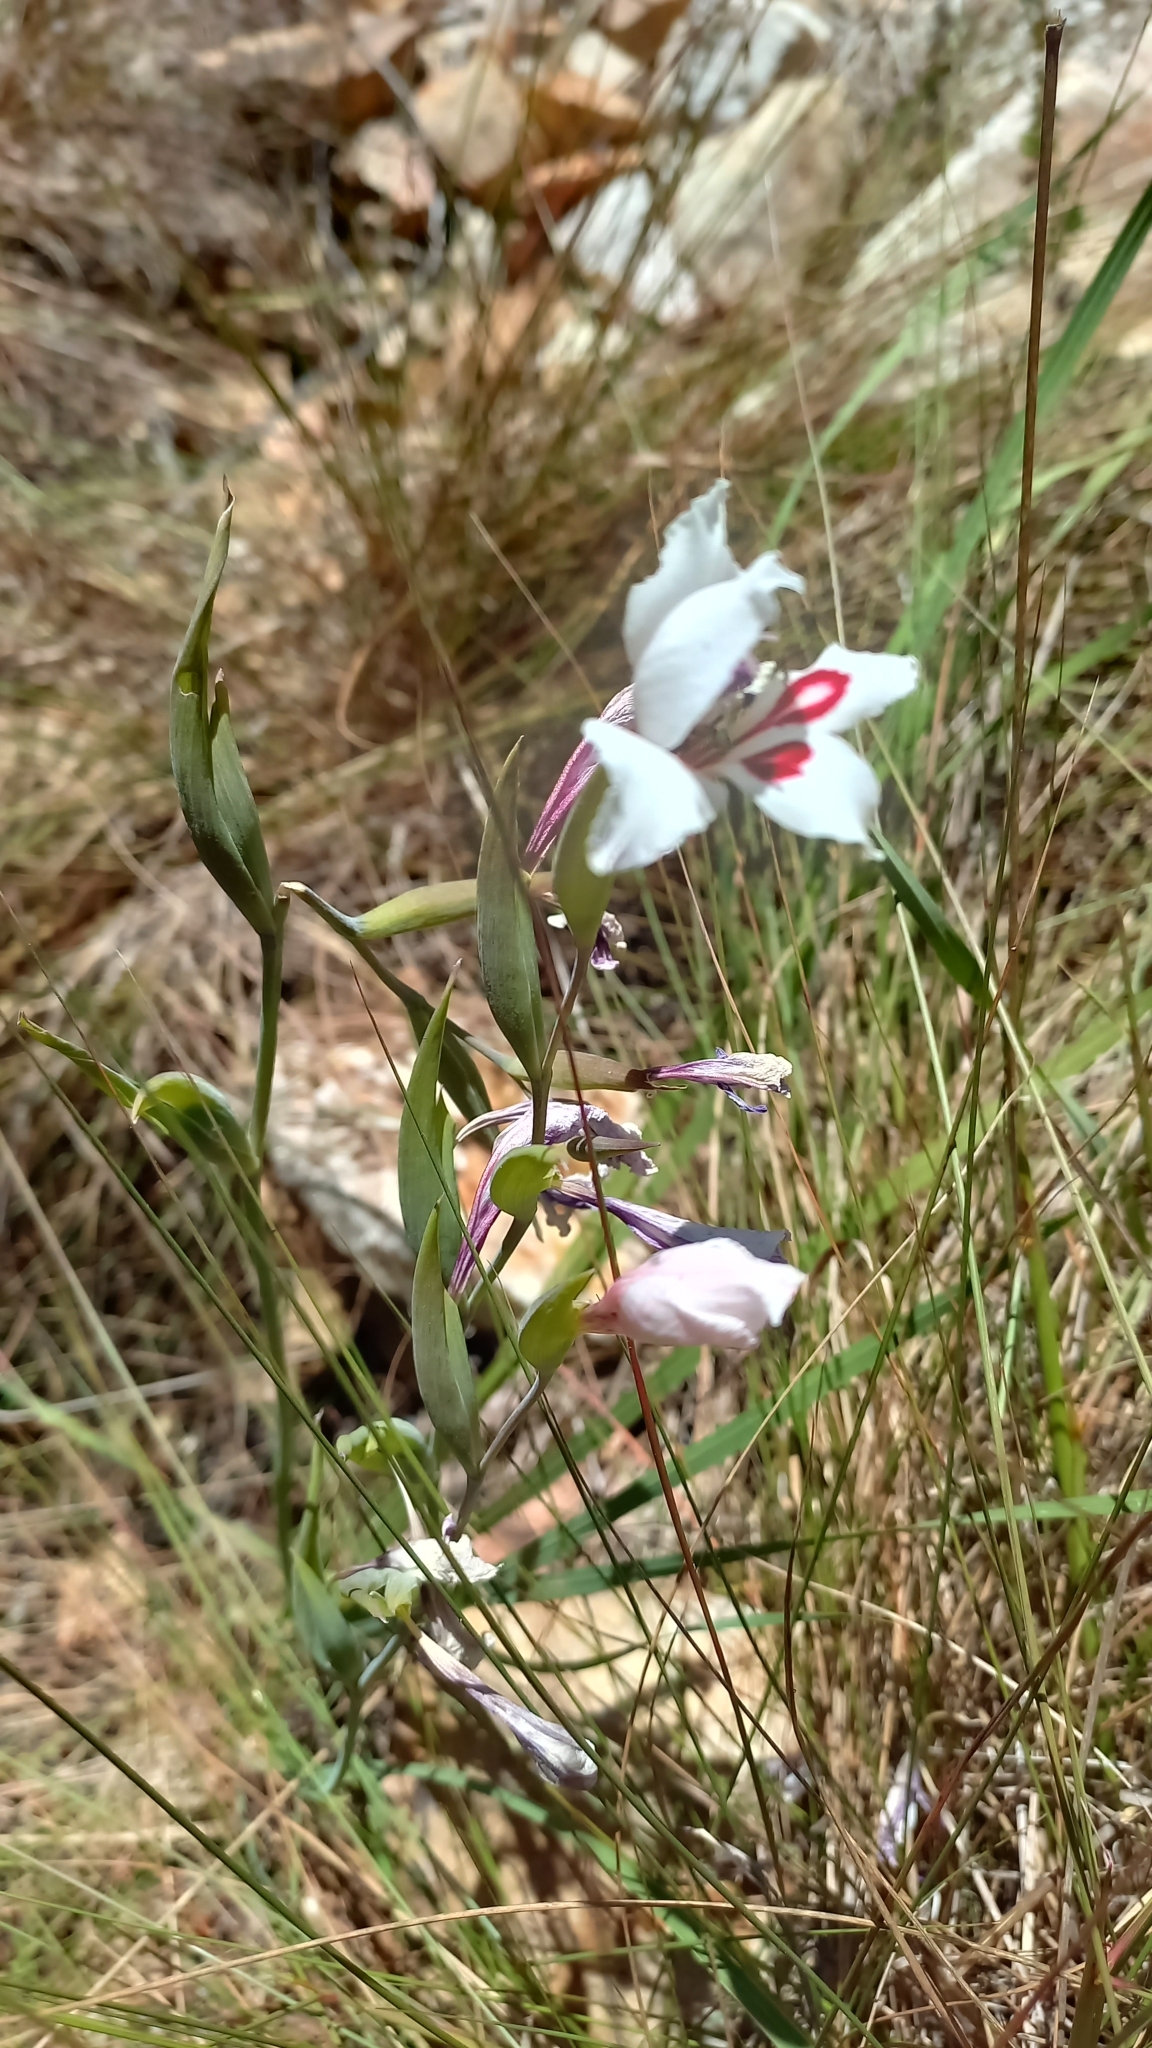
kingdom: Plantae
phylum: Tracheophyta
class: Liliopsida
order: Asparagales
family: Iridaceae
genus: Gladiolus
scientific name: Gladiolus carneus
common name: Painted-lady
